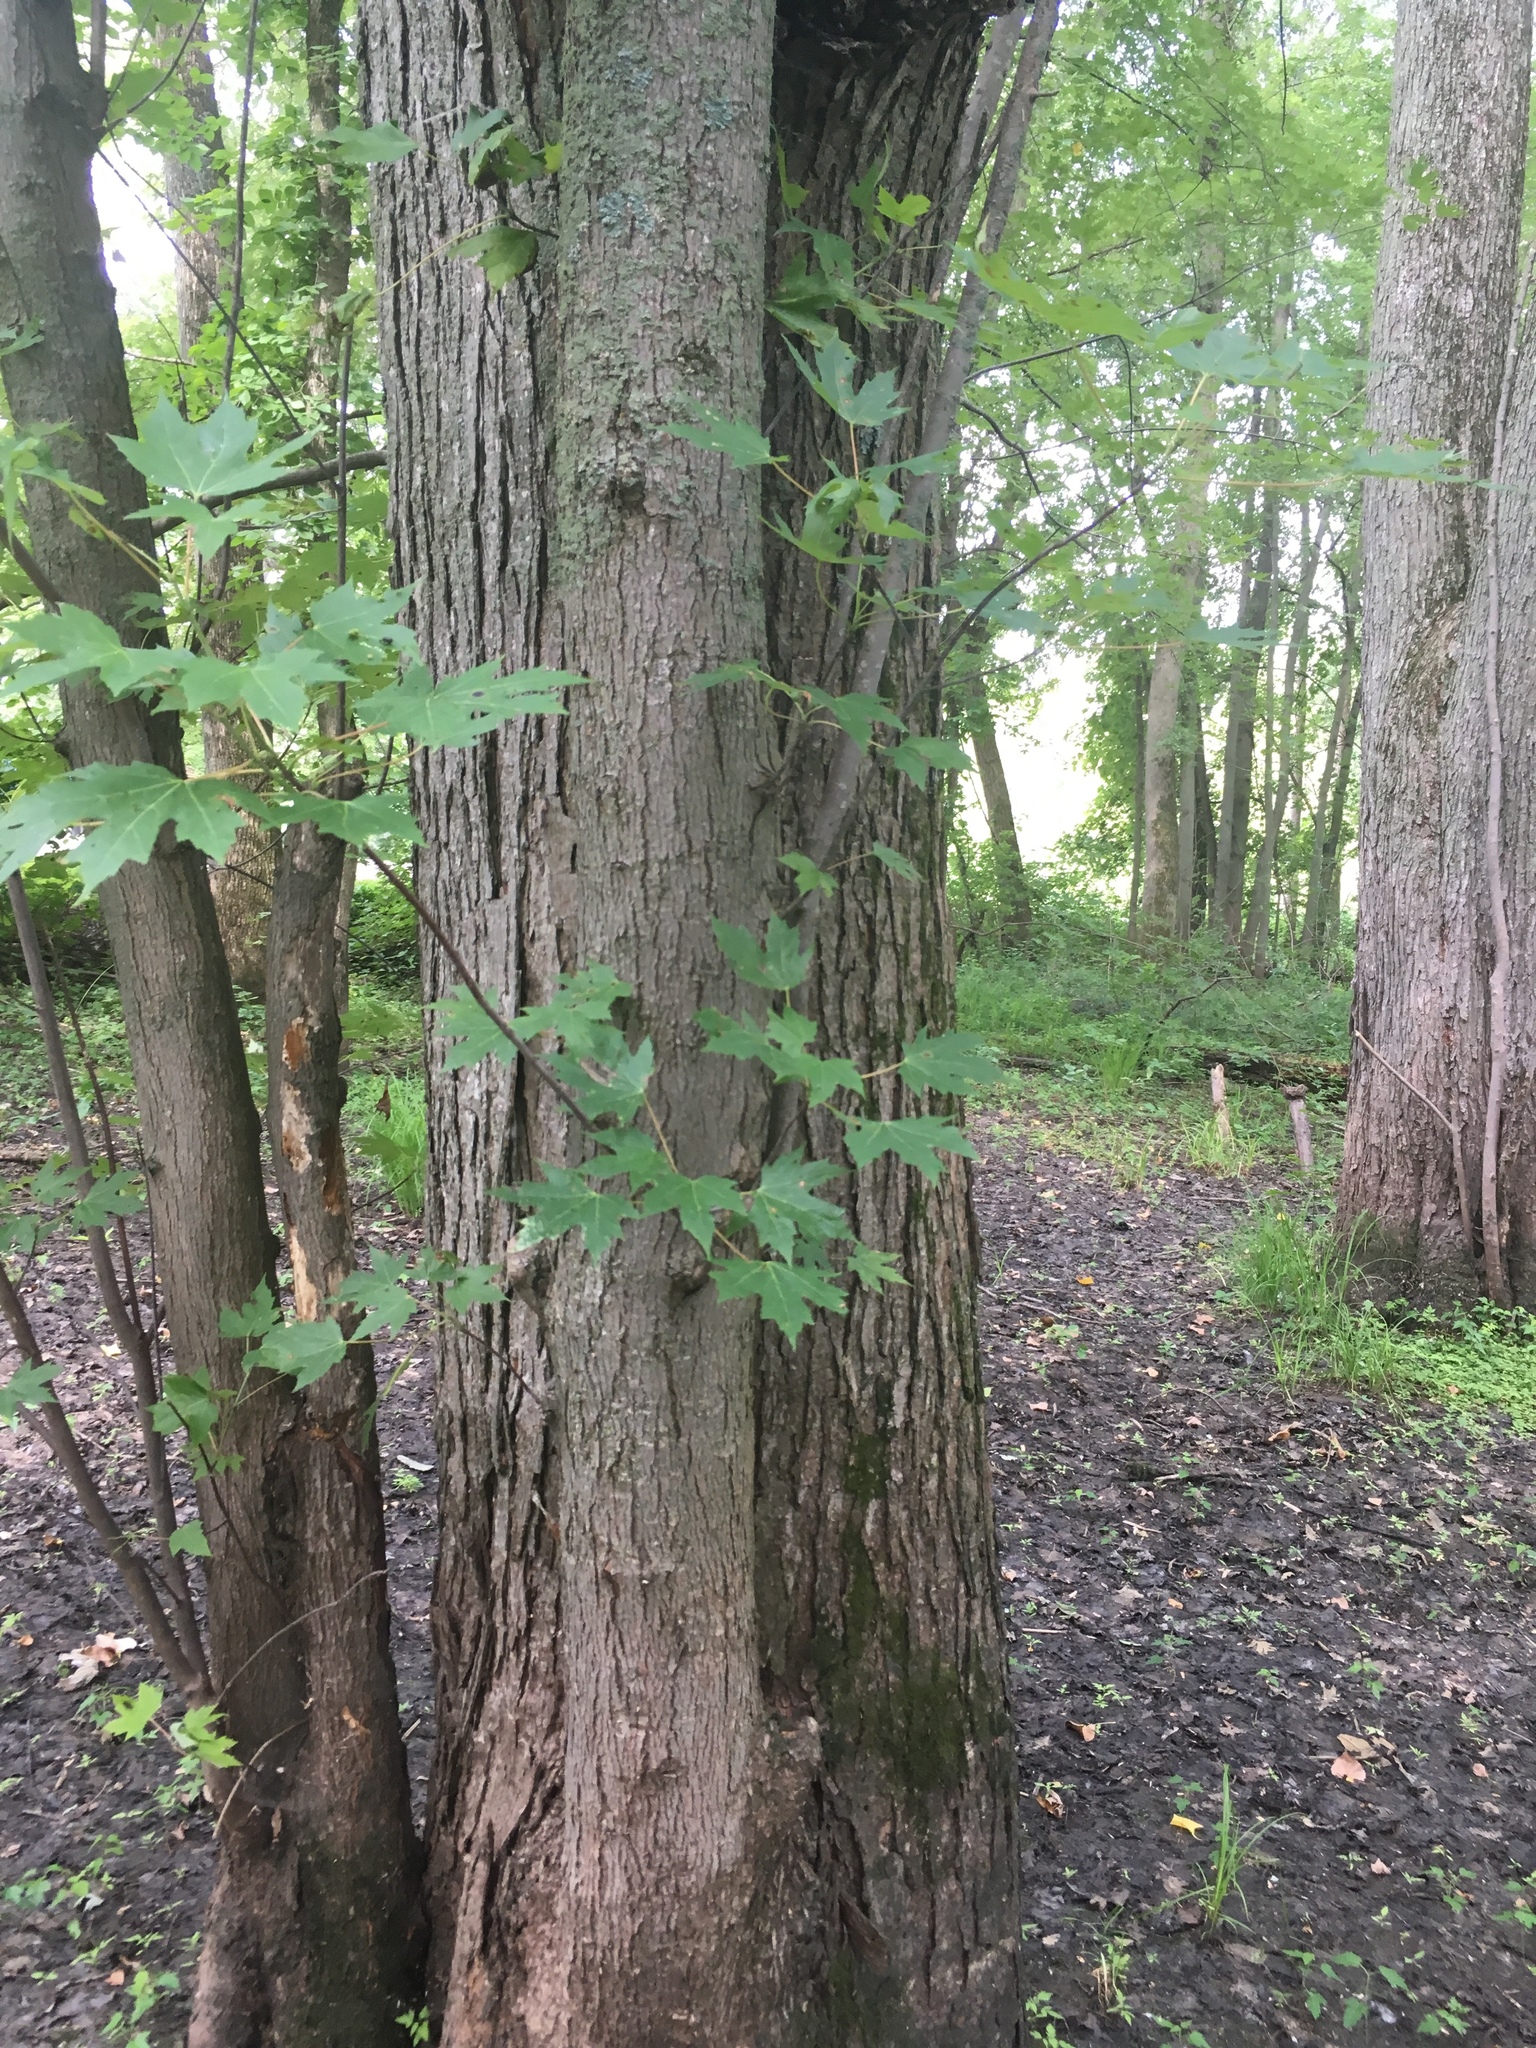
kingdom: Plantae
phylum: Tracheophyta
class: Magnoliopsida
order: Sapindales
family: Sapindaceae
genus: Acer
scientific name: Acer saccharinum
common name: Silver maple
